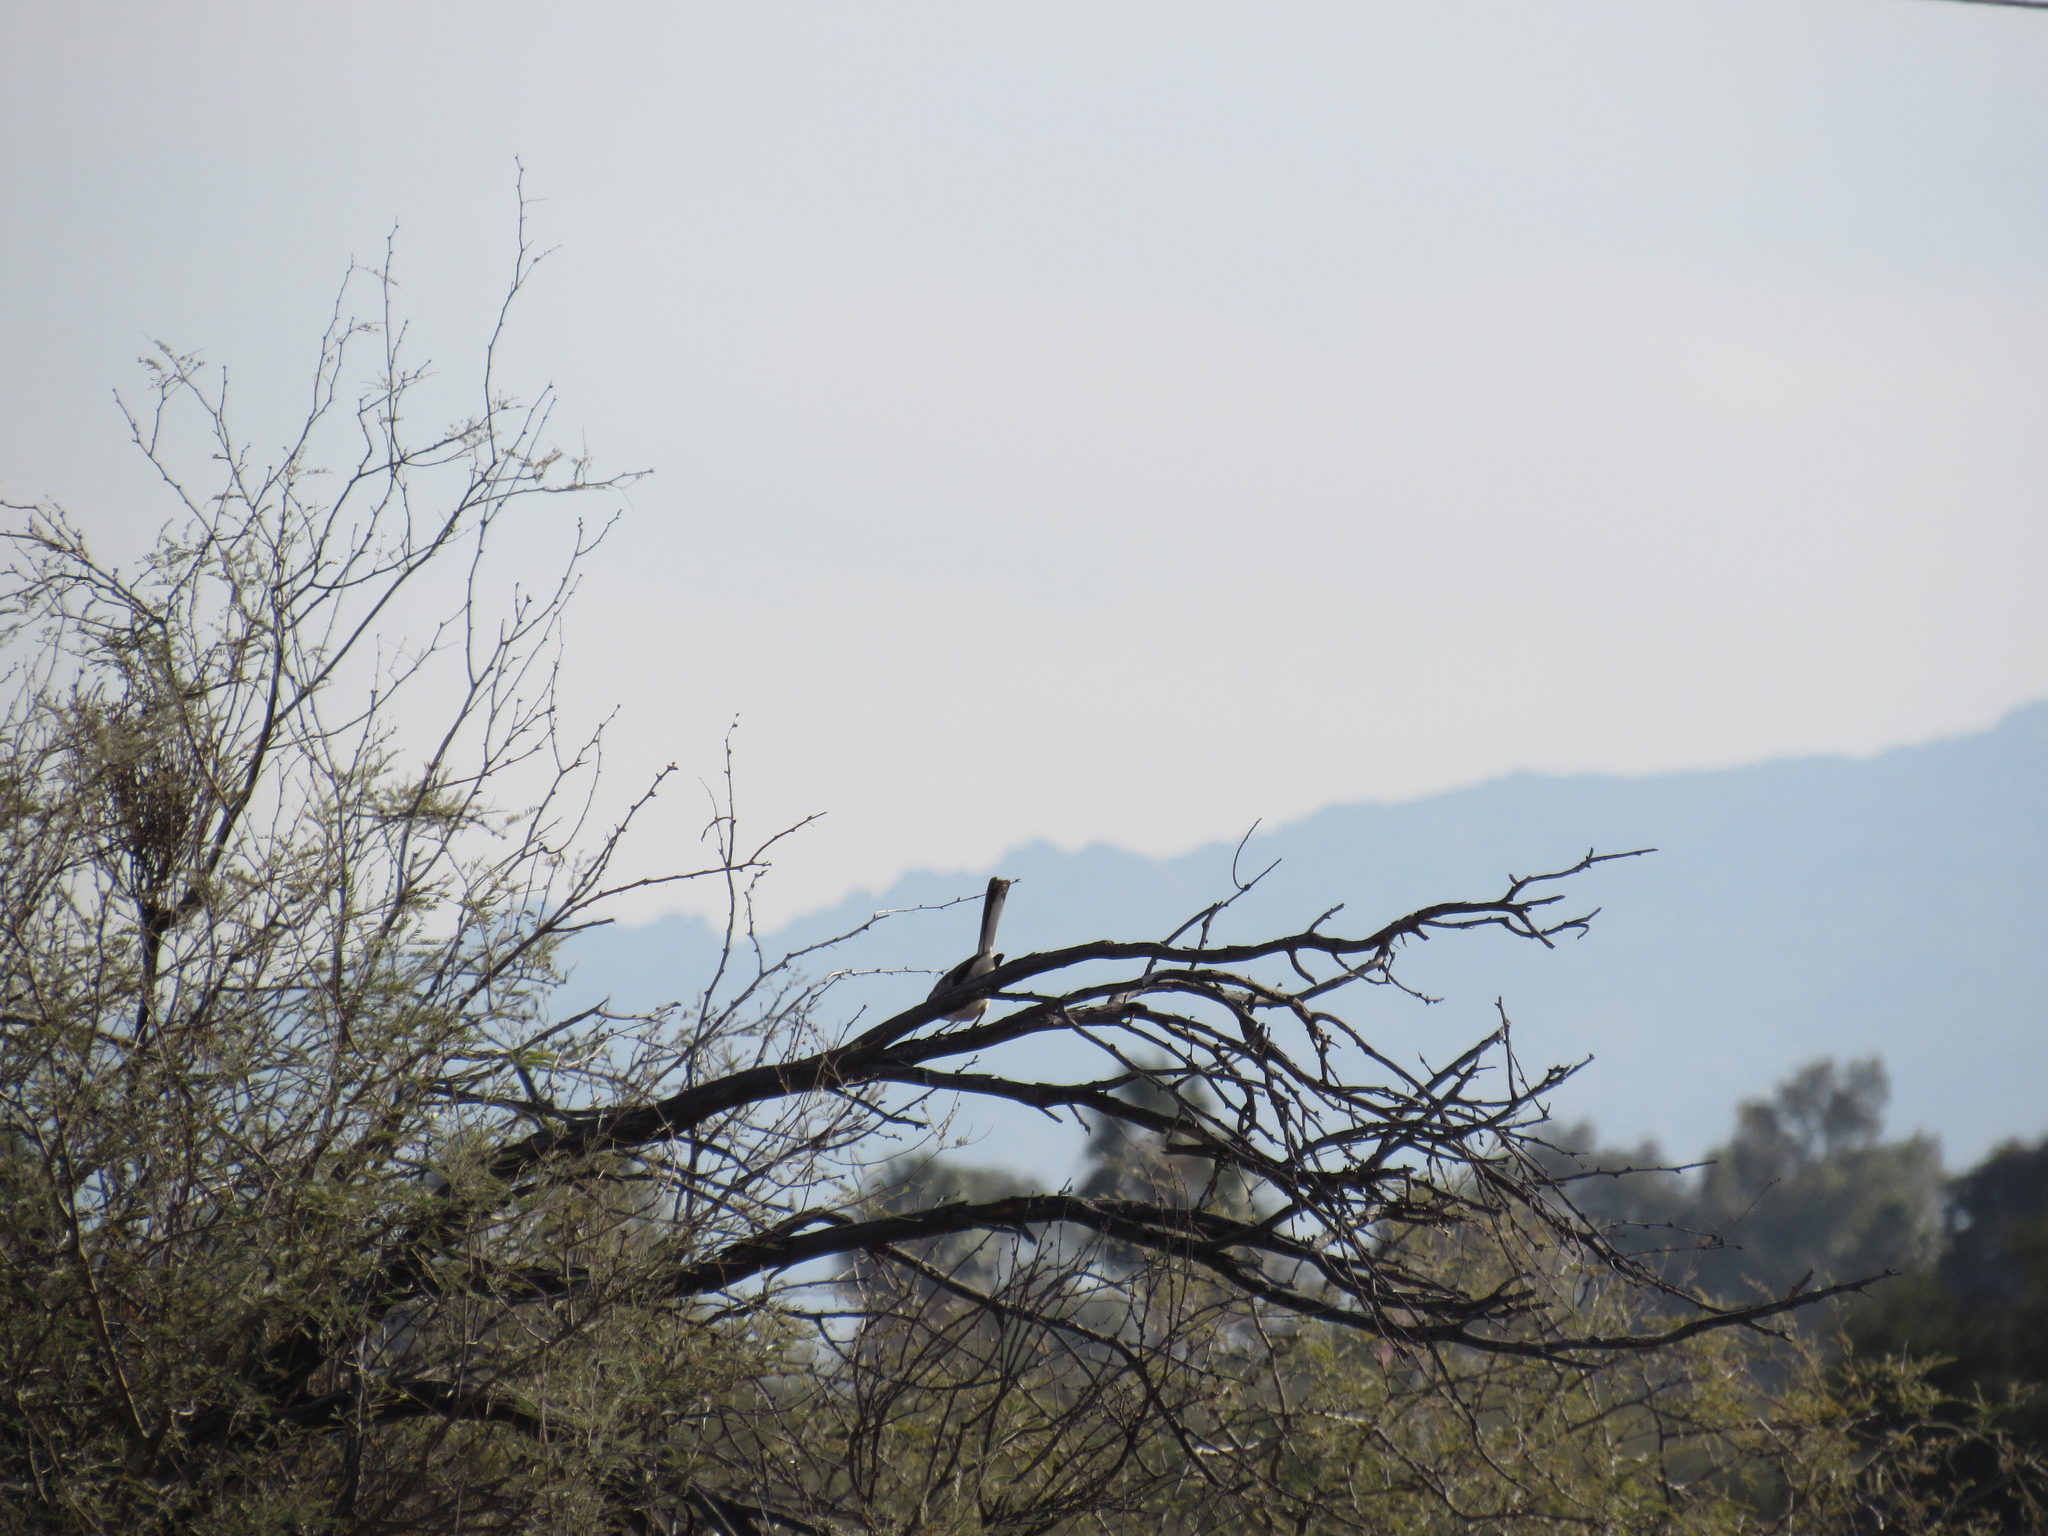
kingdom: Animalia
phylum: Chordata
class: Aves
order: Passeriformes
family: Mimidae
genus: Mimus
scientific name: Mimus polyglottos
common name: Northern mockingbird
